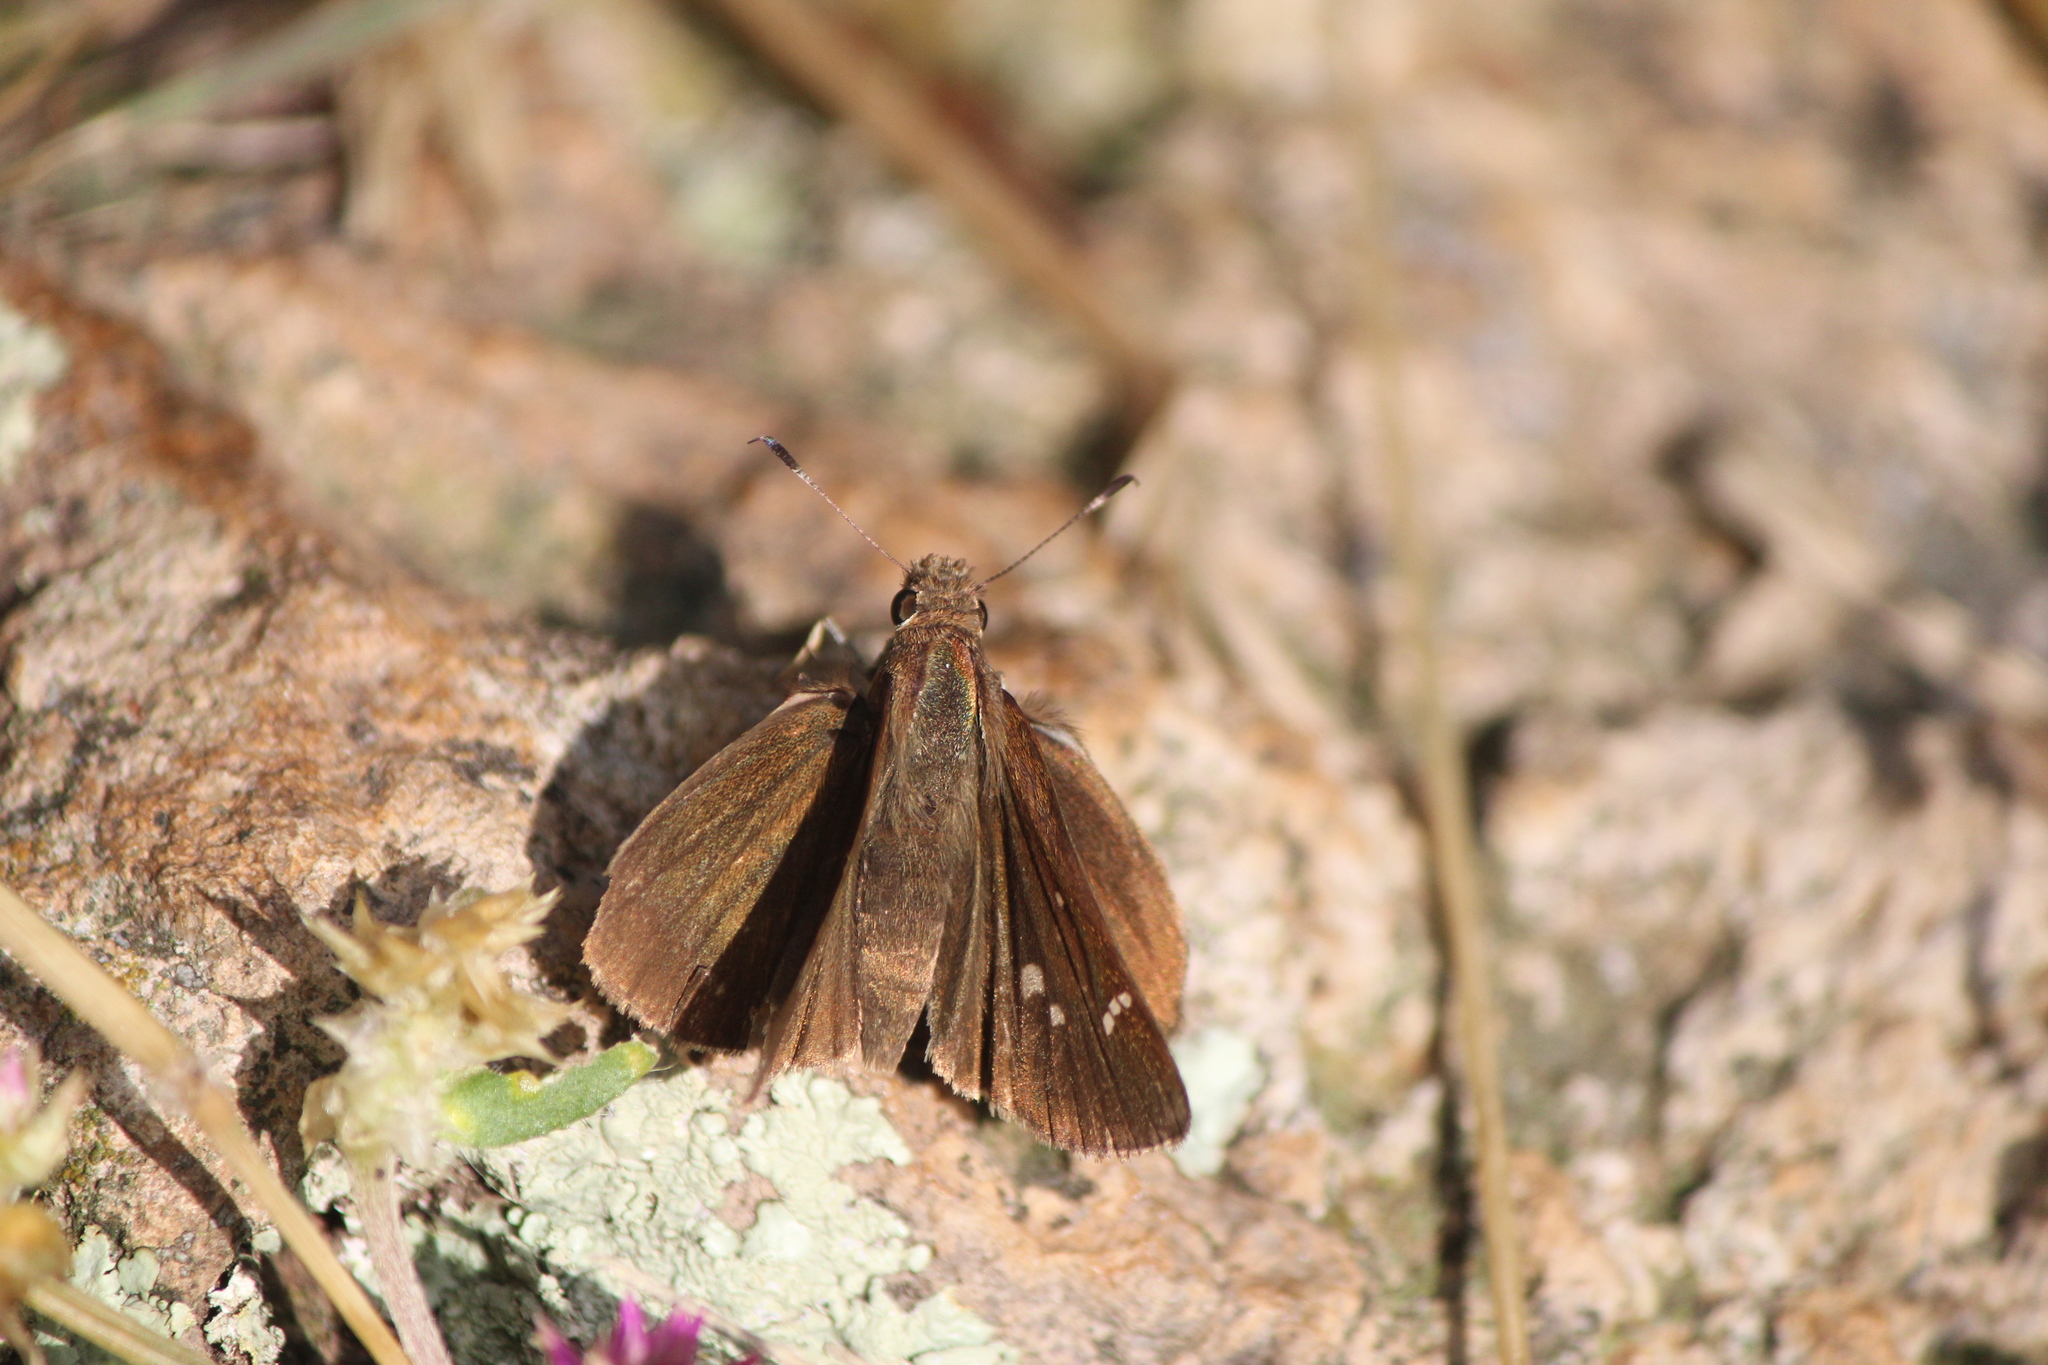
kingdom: Animalia
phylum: Arthropoda
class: Insecta
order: Lepidoptera
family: Hesperiidae
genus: Lerema
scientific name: Lerema accius
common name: Clouded skipper
